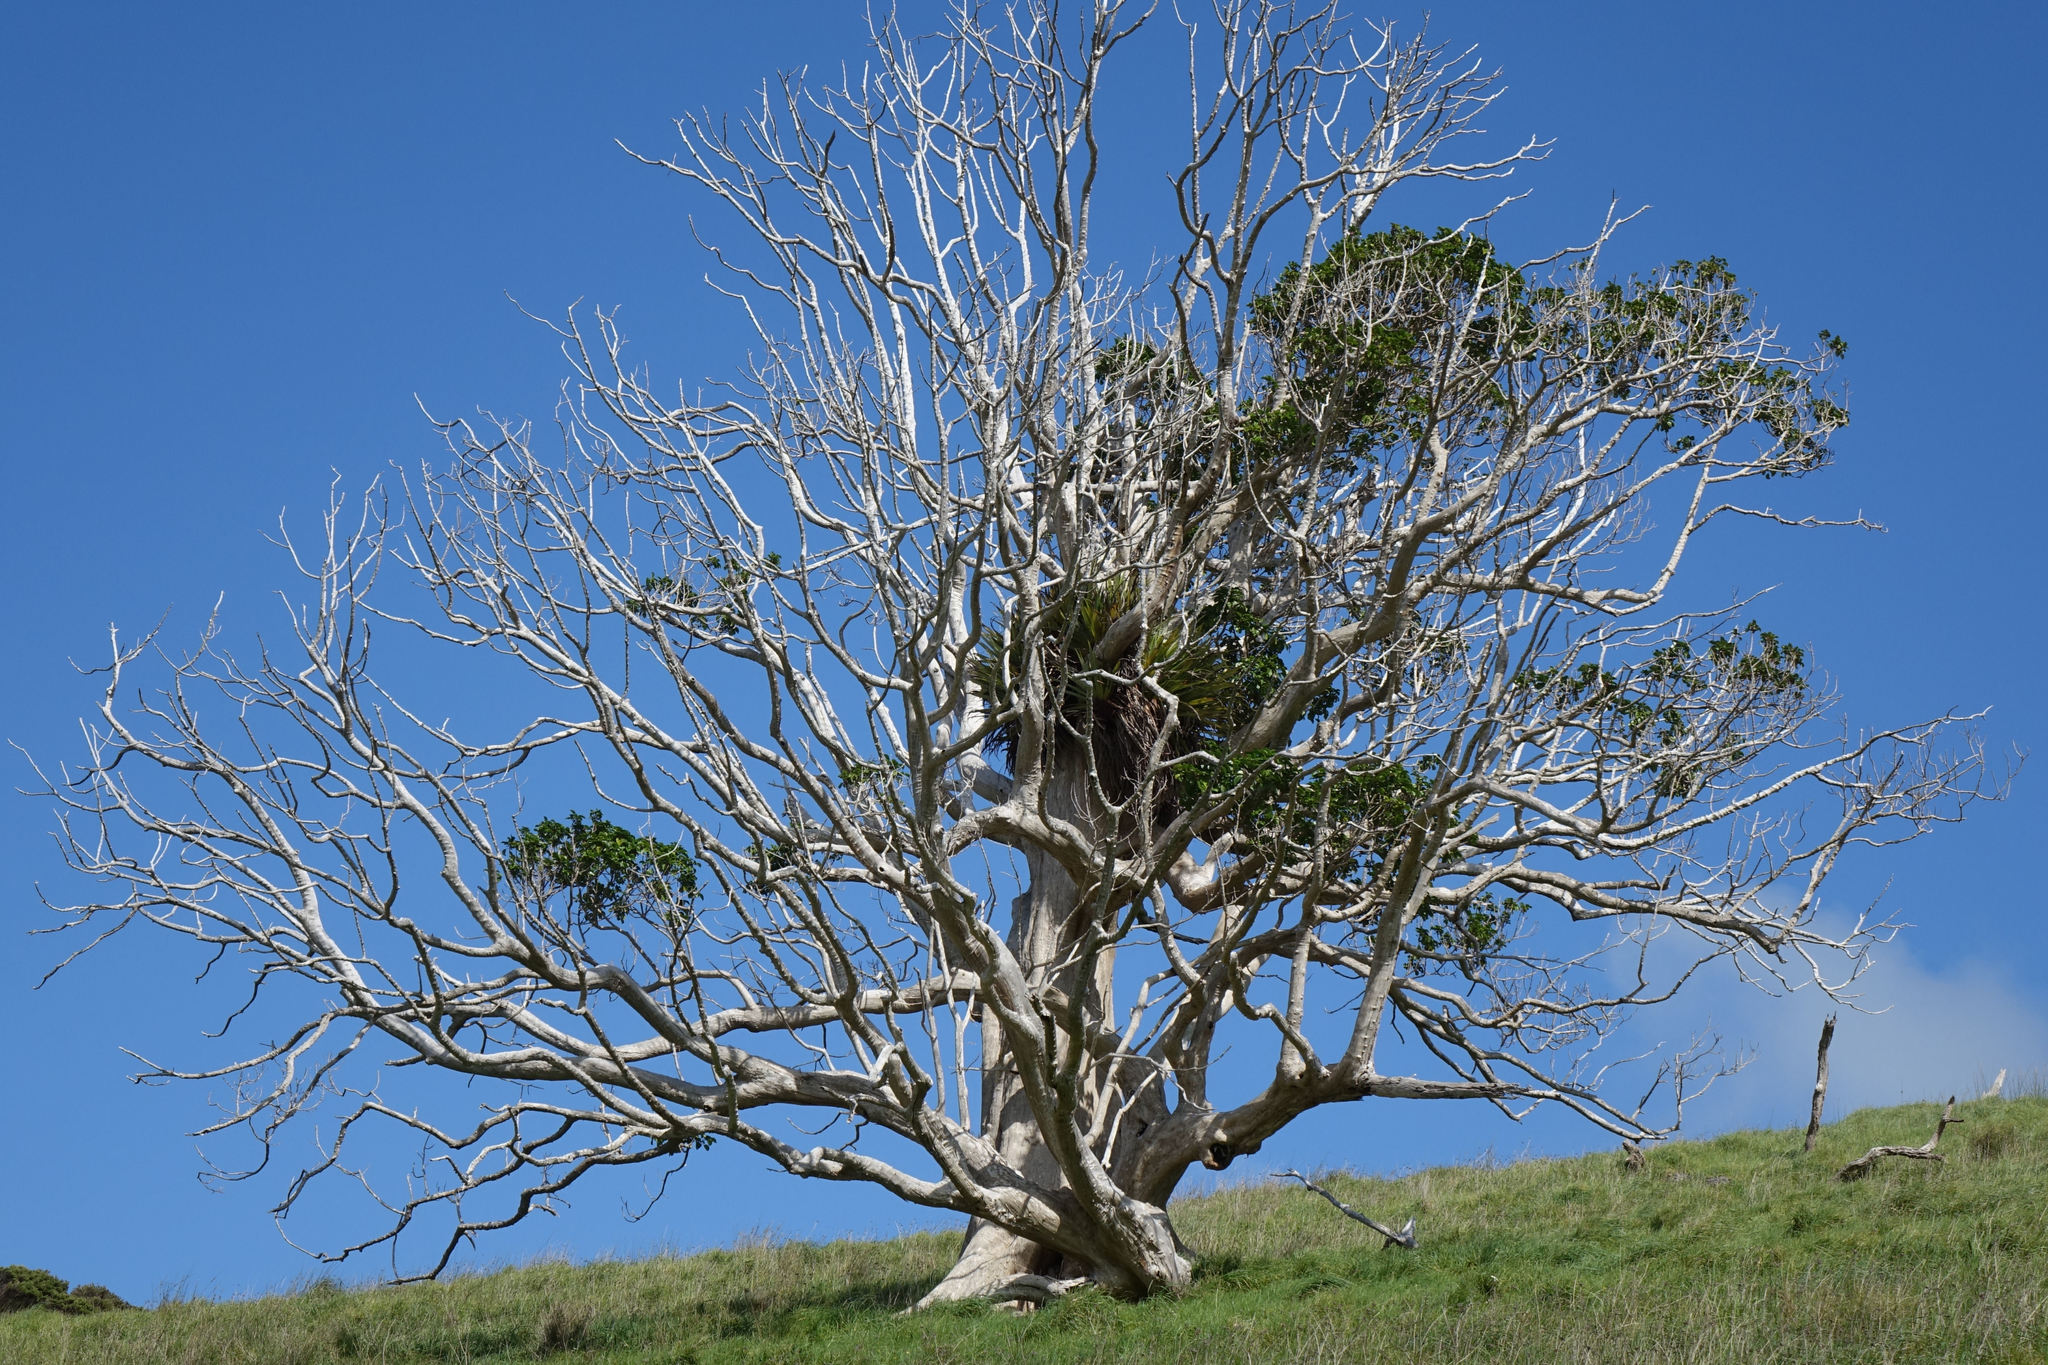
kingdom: Plantae
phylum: Tracheophyta
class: Magnoliopsida
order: Lamiales
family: Lamiaceae
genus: Vitex
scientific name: Vitex lucens
